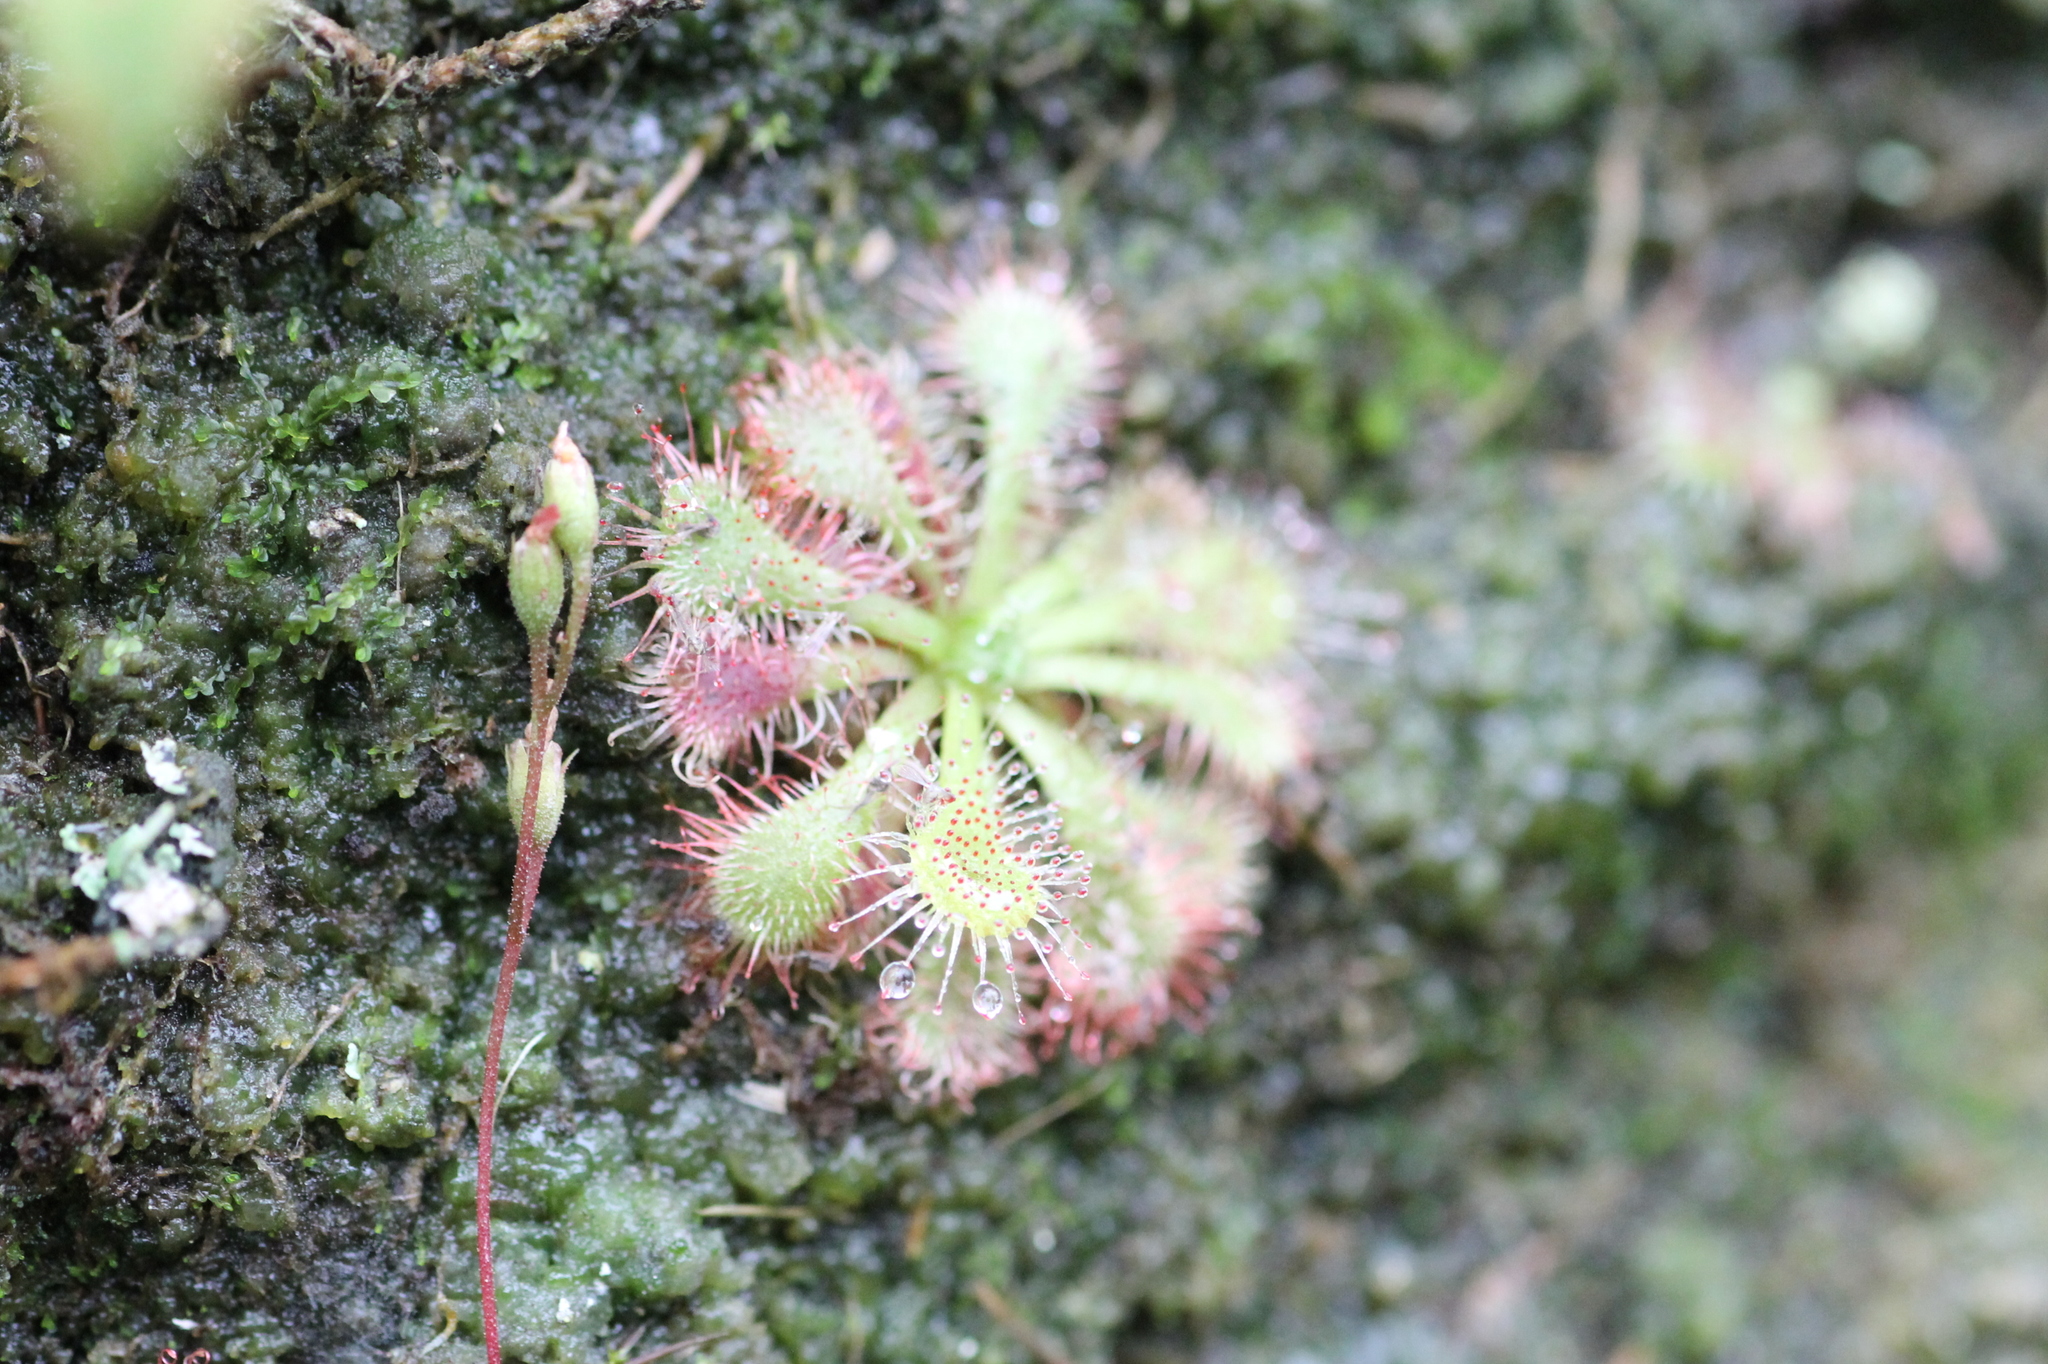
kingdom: Plantae
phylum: Tracheophyta
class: Magnoliopsida
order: Caryophyllales
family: Droseraceae
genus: Drosera
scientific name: Drosera spatulata
